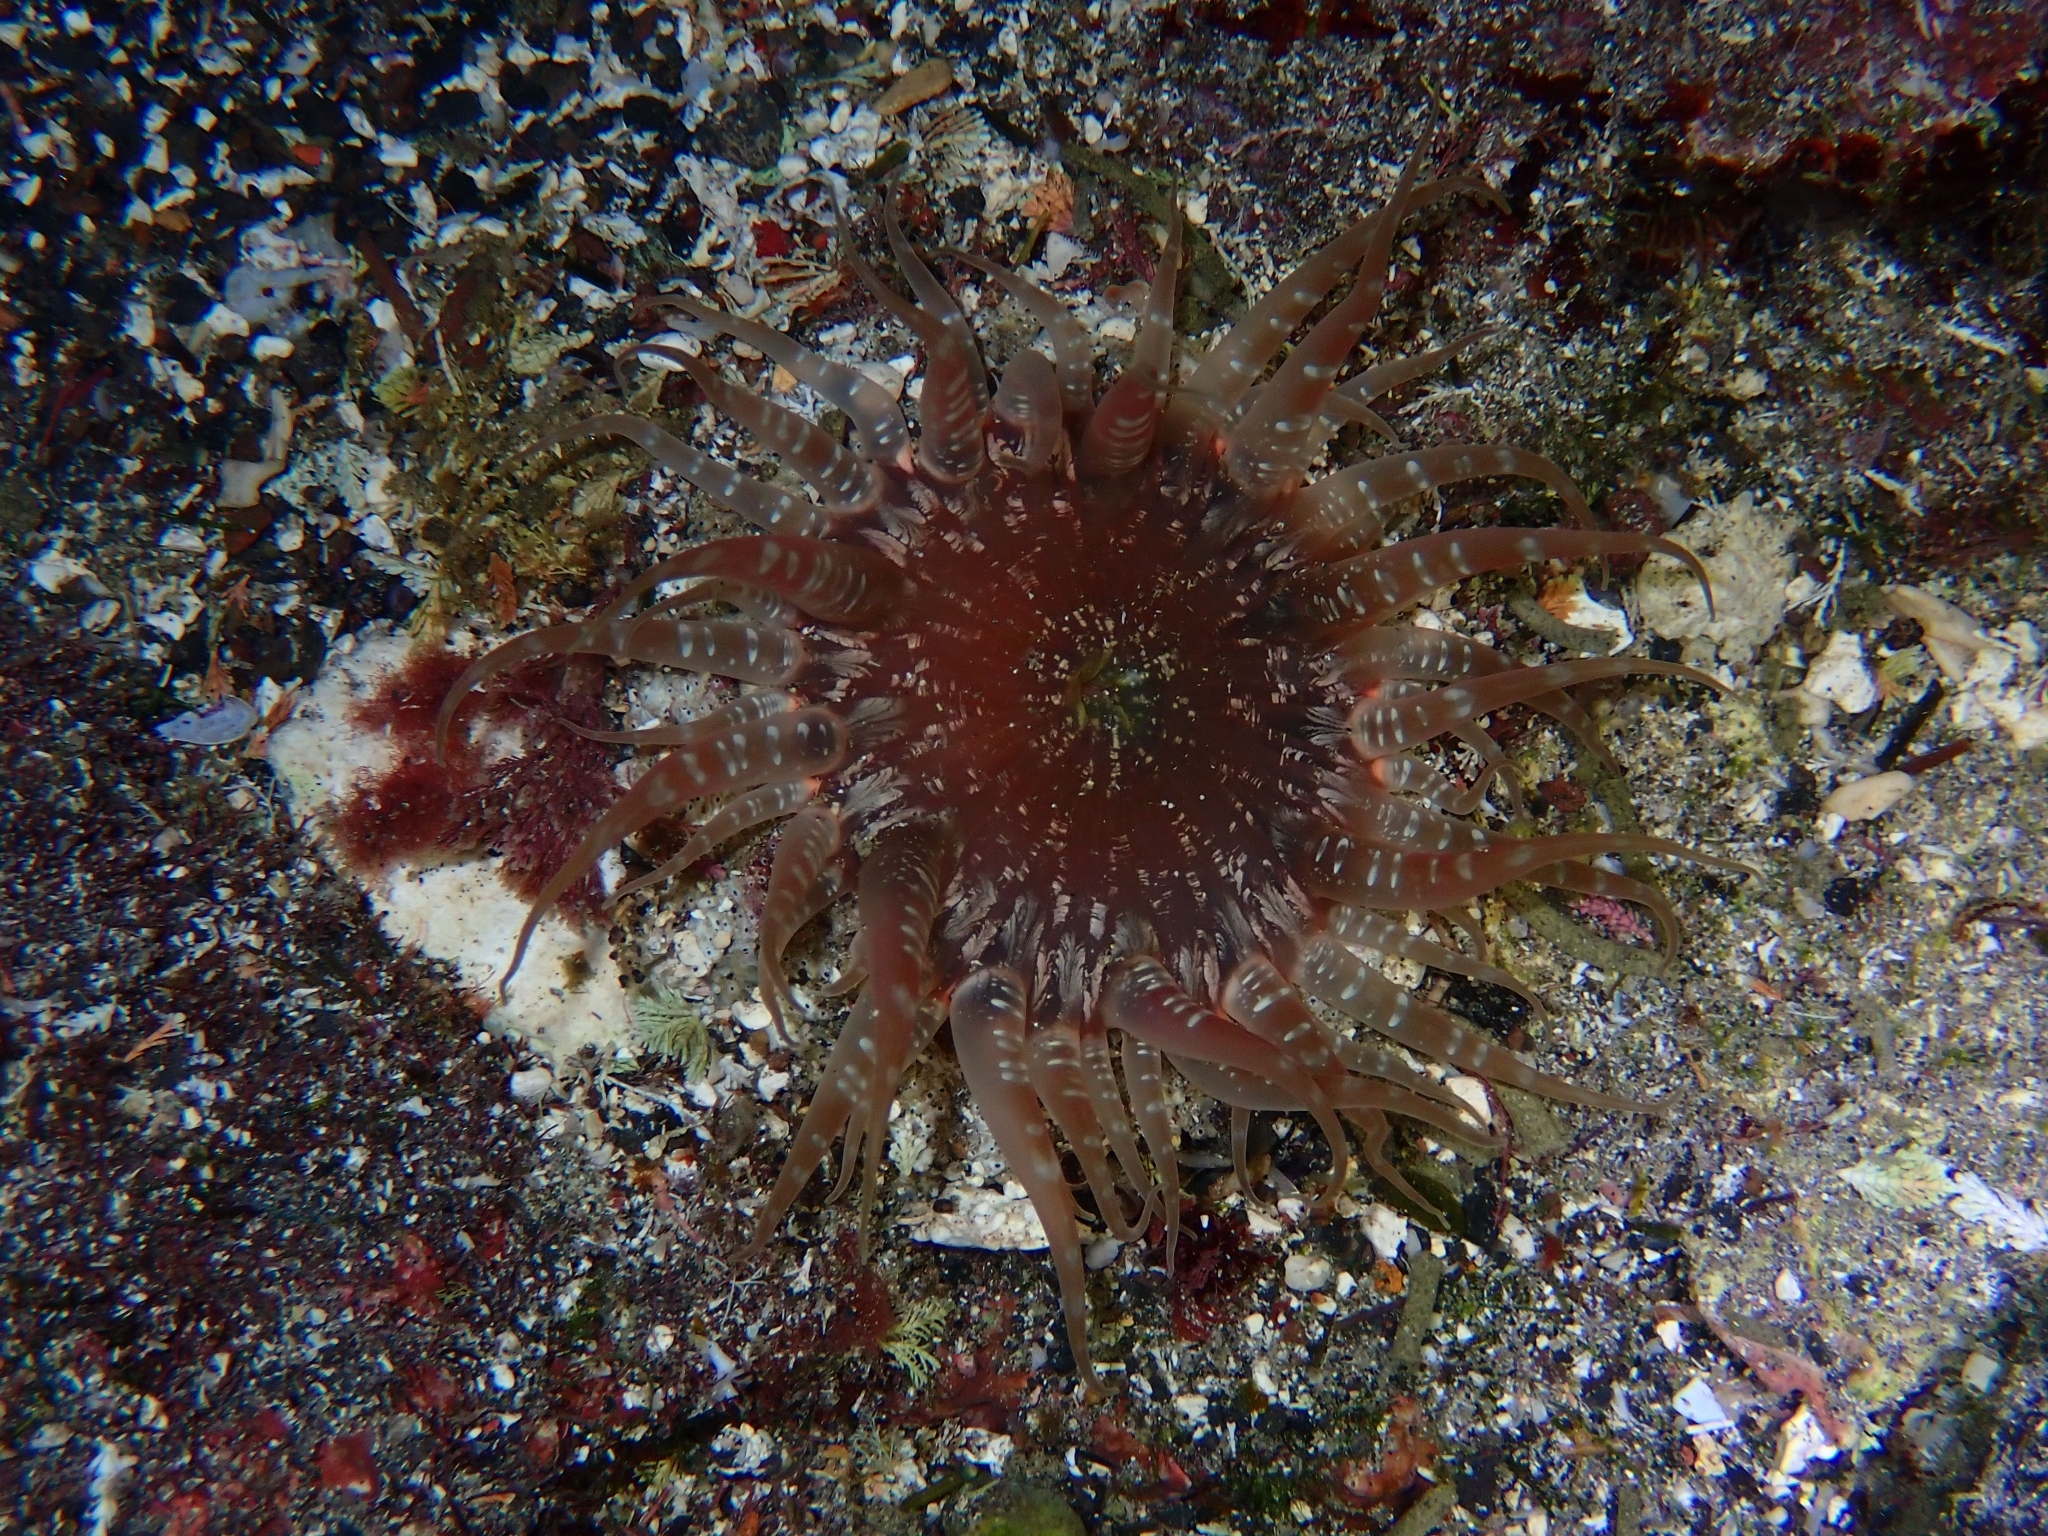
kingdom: Animalia
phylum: Cnidaria
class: Anthozoa
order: Actiniaria
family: Actiniidae
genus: Actinostella
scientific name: Actinostella flosculifera
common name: Collared sand anemone
